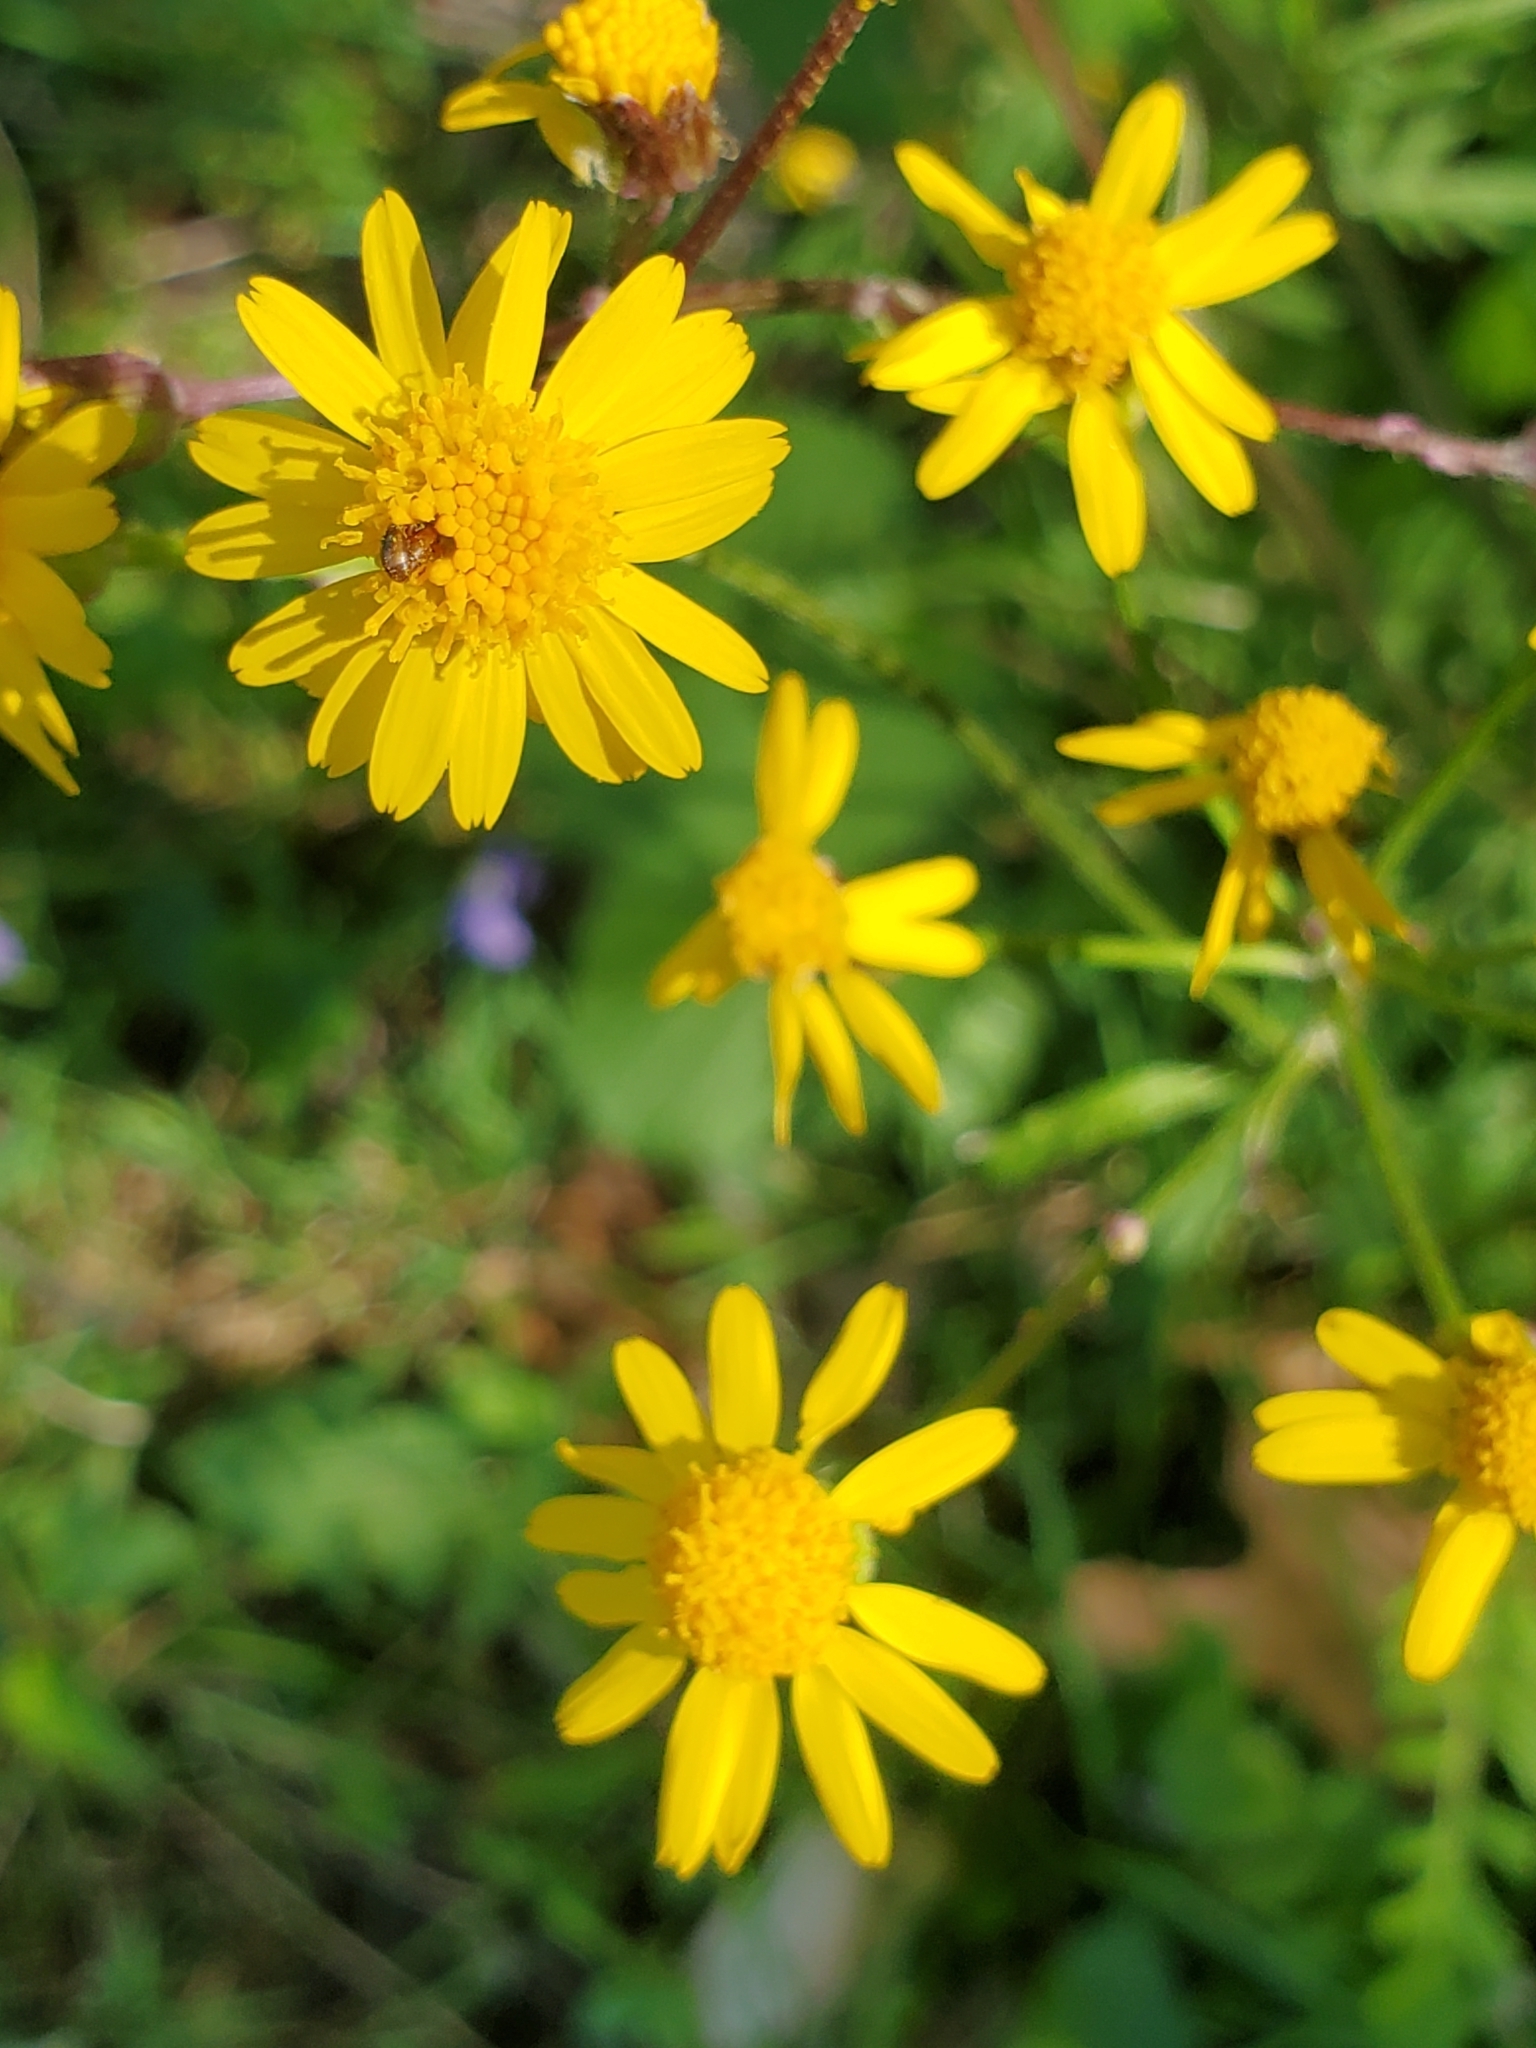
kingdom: Plantae
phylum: Tracheophyta
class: Magnoliopsida
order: Asterales
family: Asteraceae
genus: Packera
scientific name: Packera aurea
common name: Golden groundsel
